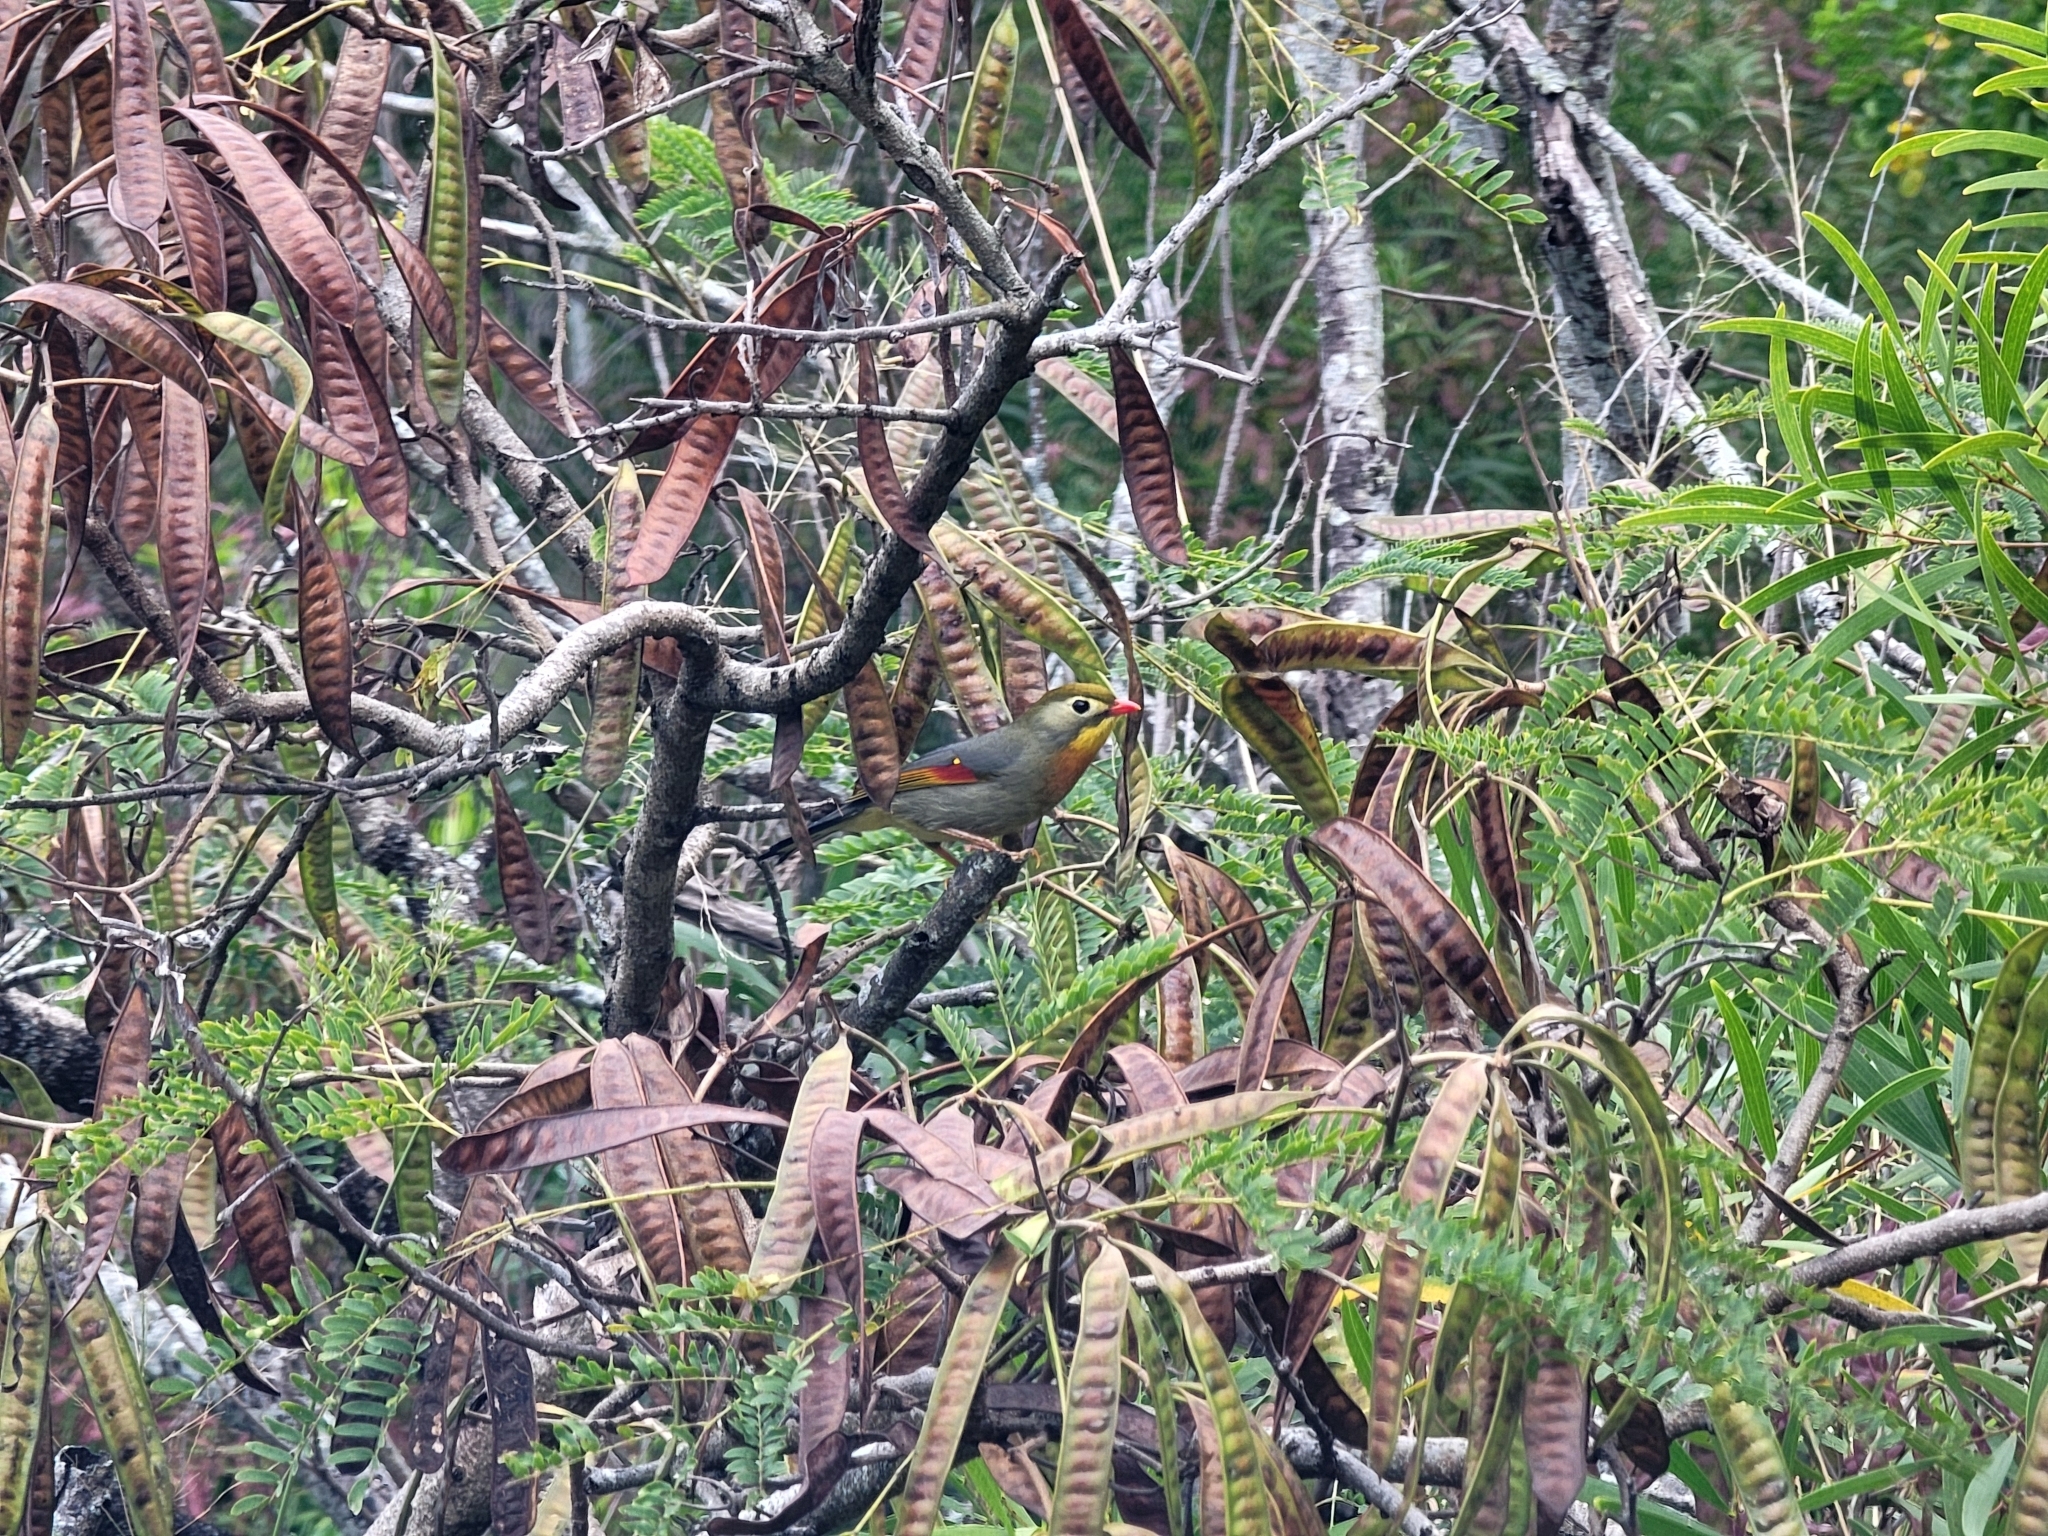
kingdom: Animalia
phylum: Chordata
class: Aves
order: Passeriformes
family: Leiothrichidae
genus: Leiothrix
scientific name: Leiothrix lutea
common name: Red-billed leiothrix
